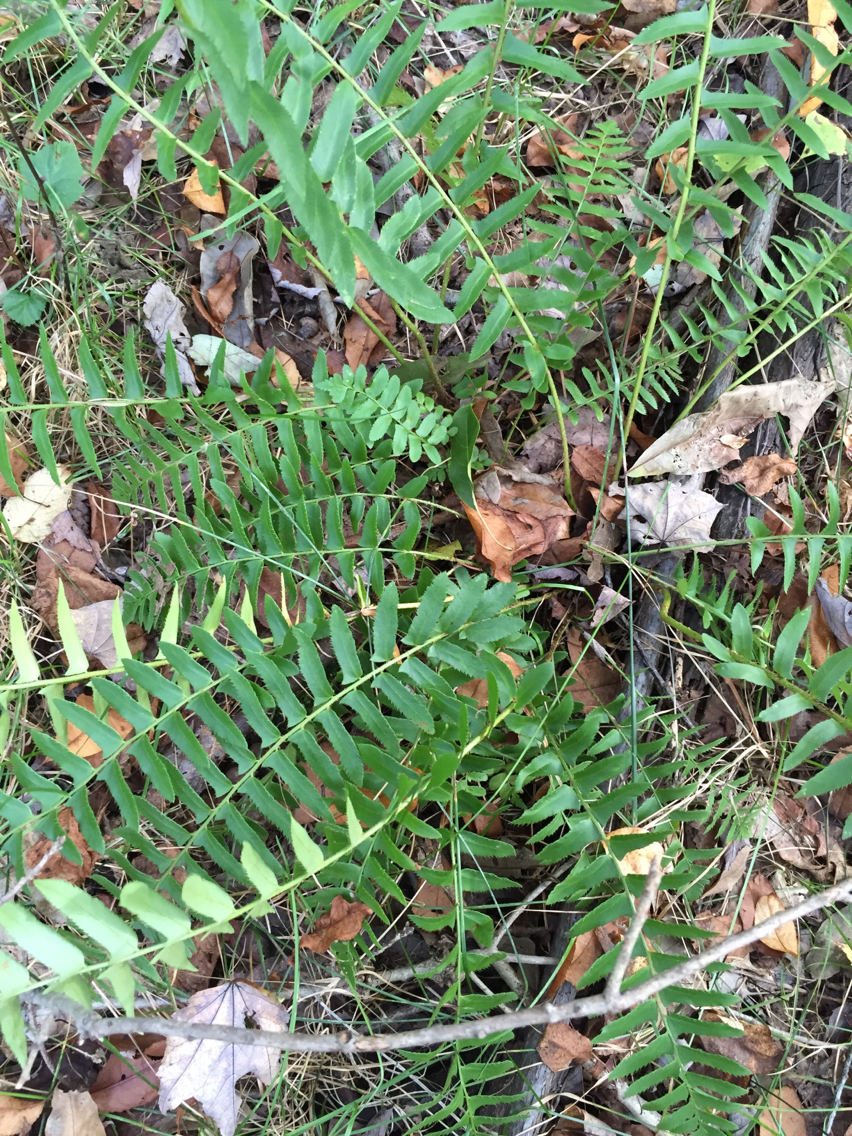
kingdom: Plantae
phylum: Tracheophyta
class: Polypodiopsida
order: Polypodiales
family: Dryopteridaceae
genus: Polystichum
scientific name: Polystichum acrostichoides
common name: Christmas fern
